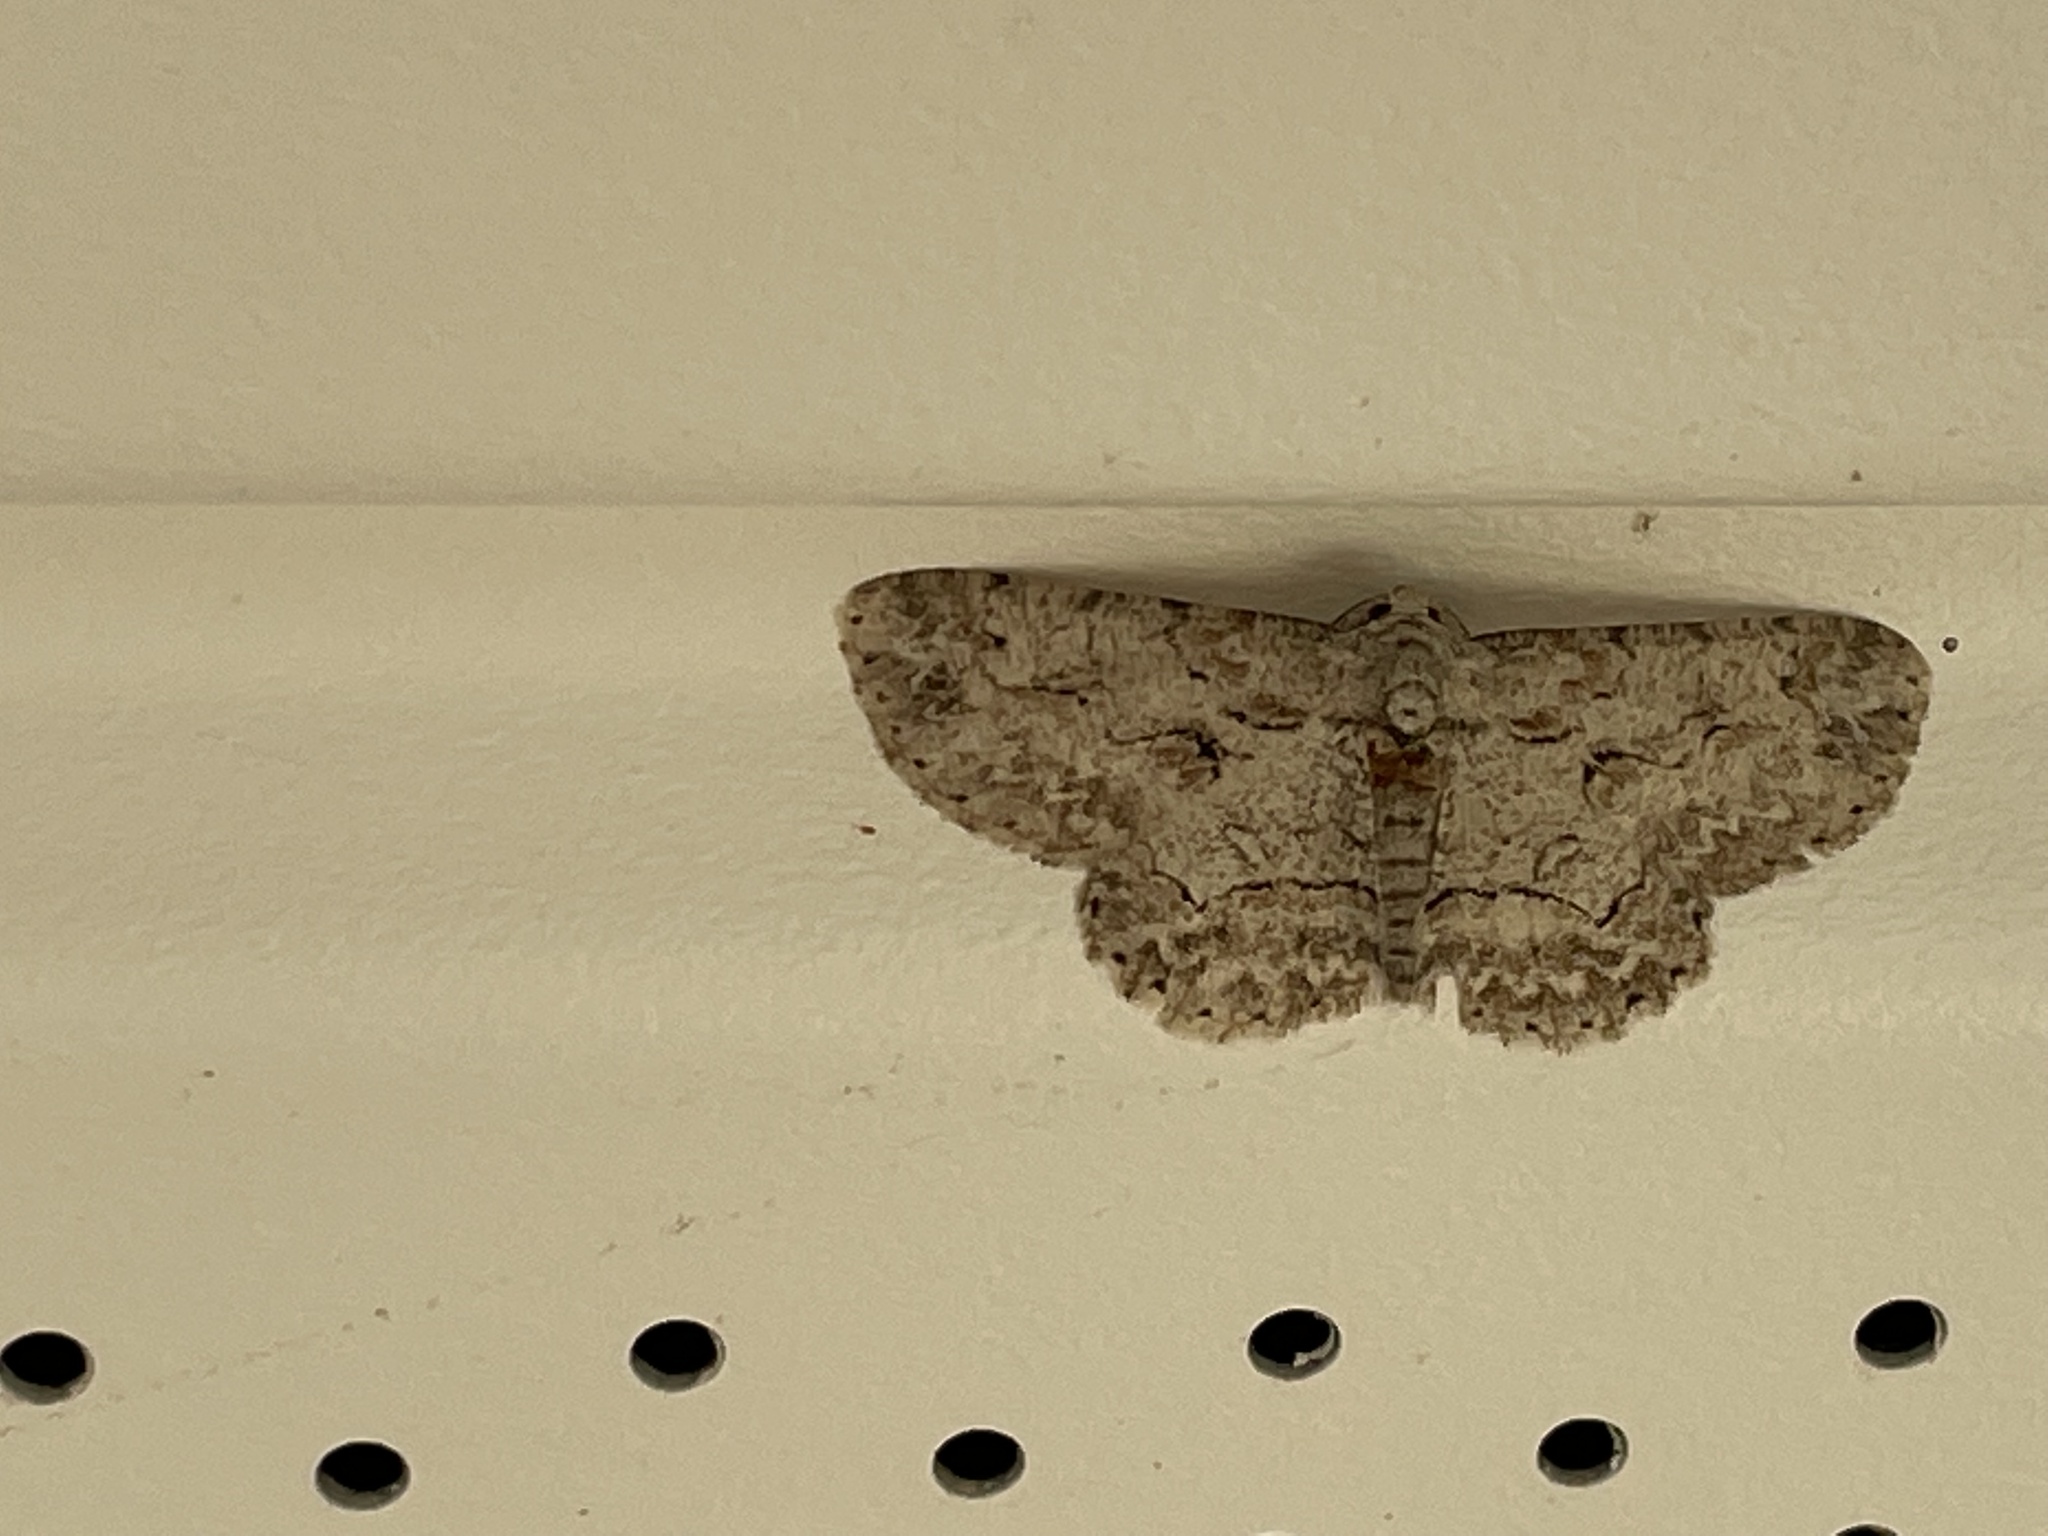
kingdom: Animalia
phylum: Arthropoda
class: Insecta
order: Lepidoptera
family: Geometridae
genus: Iridopsis
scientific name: Iridopsis defectaria
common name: Brown-shaded gray
